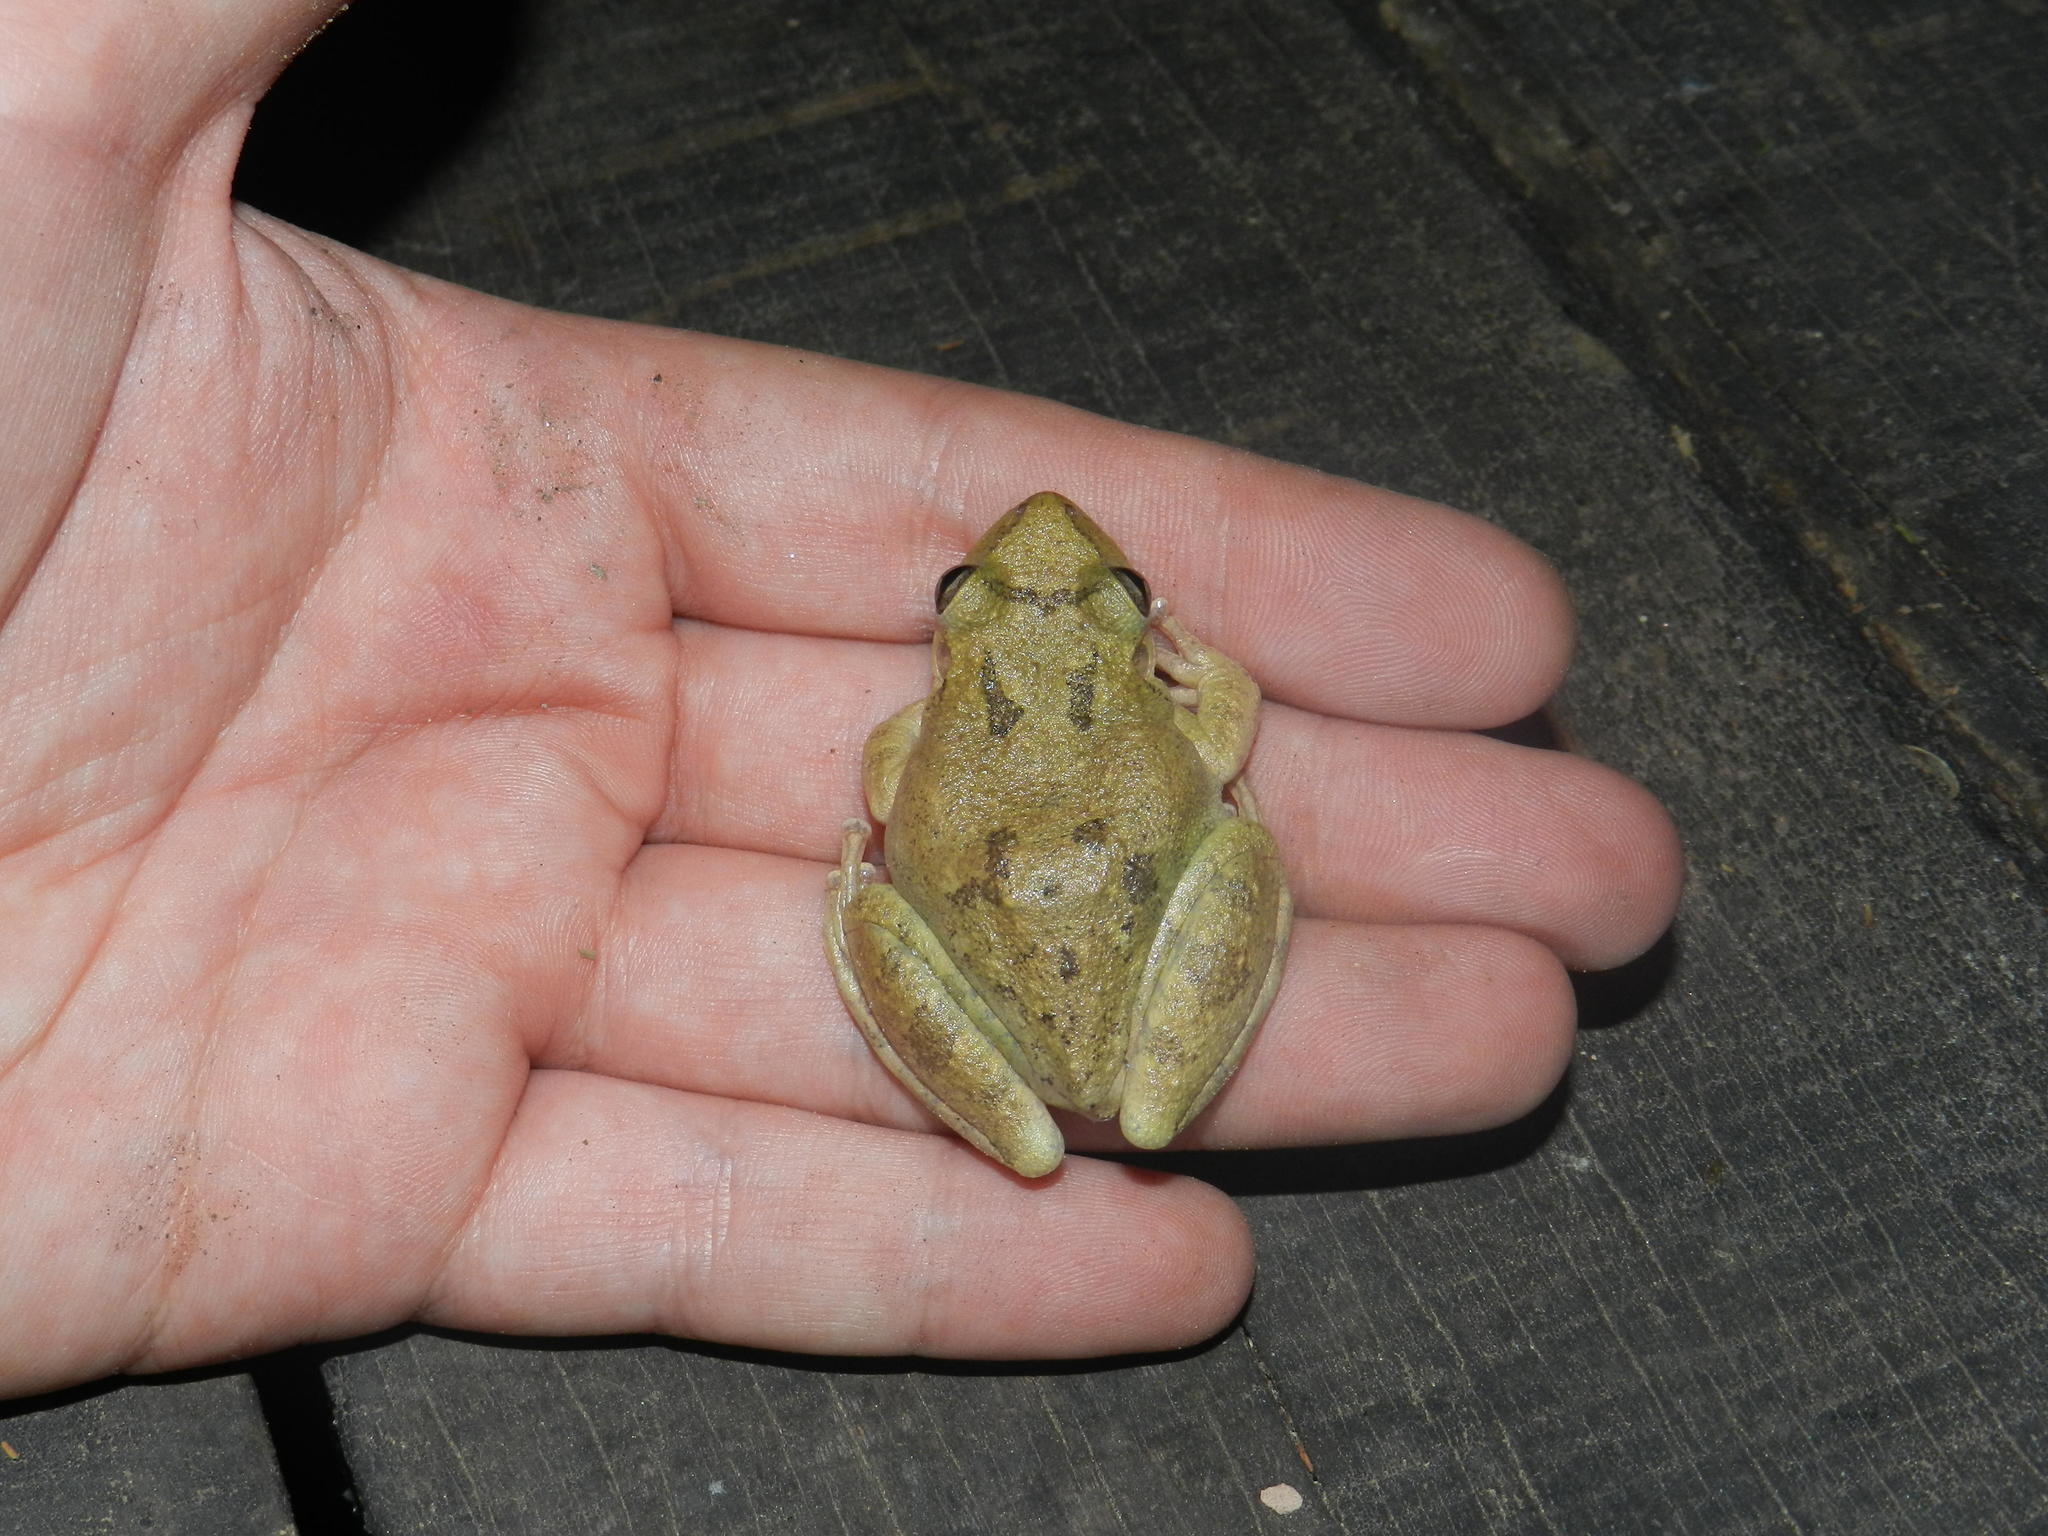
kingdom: Animalia
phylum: Chordata
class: Amphibia
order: Anura
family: Hylidae
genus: Scinax
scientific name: Scinax fuscovarius
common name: Fuscous-blotched treefrog
